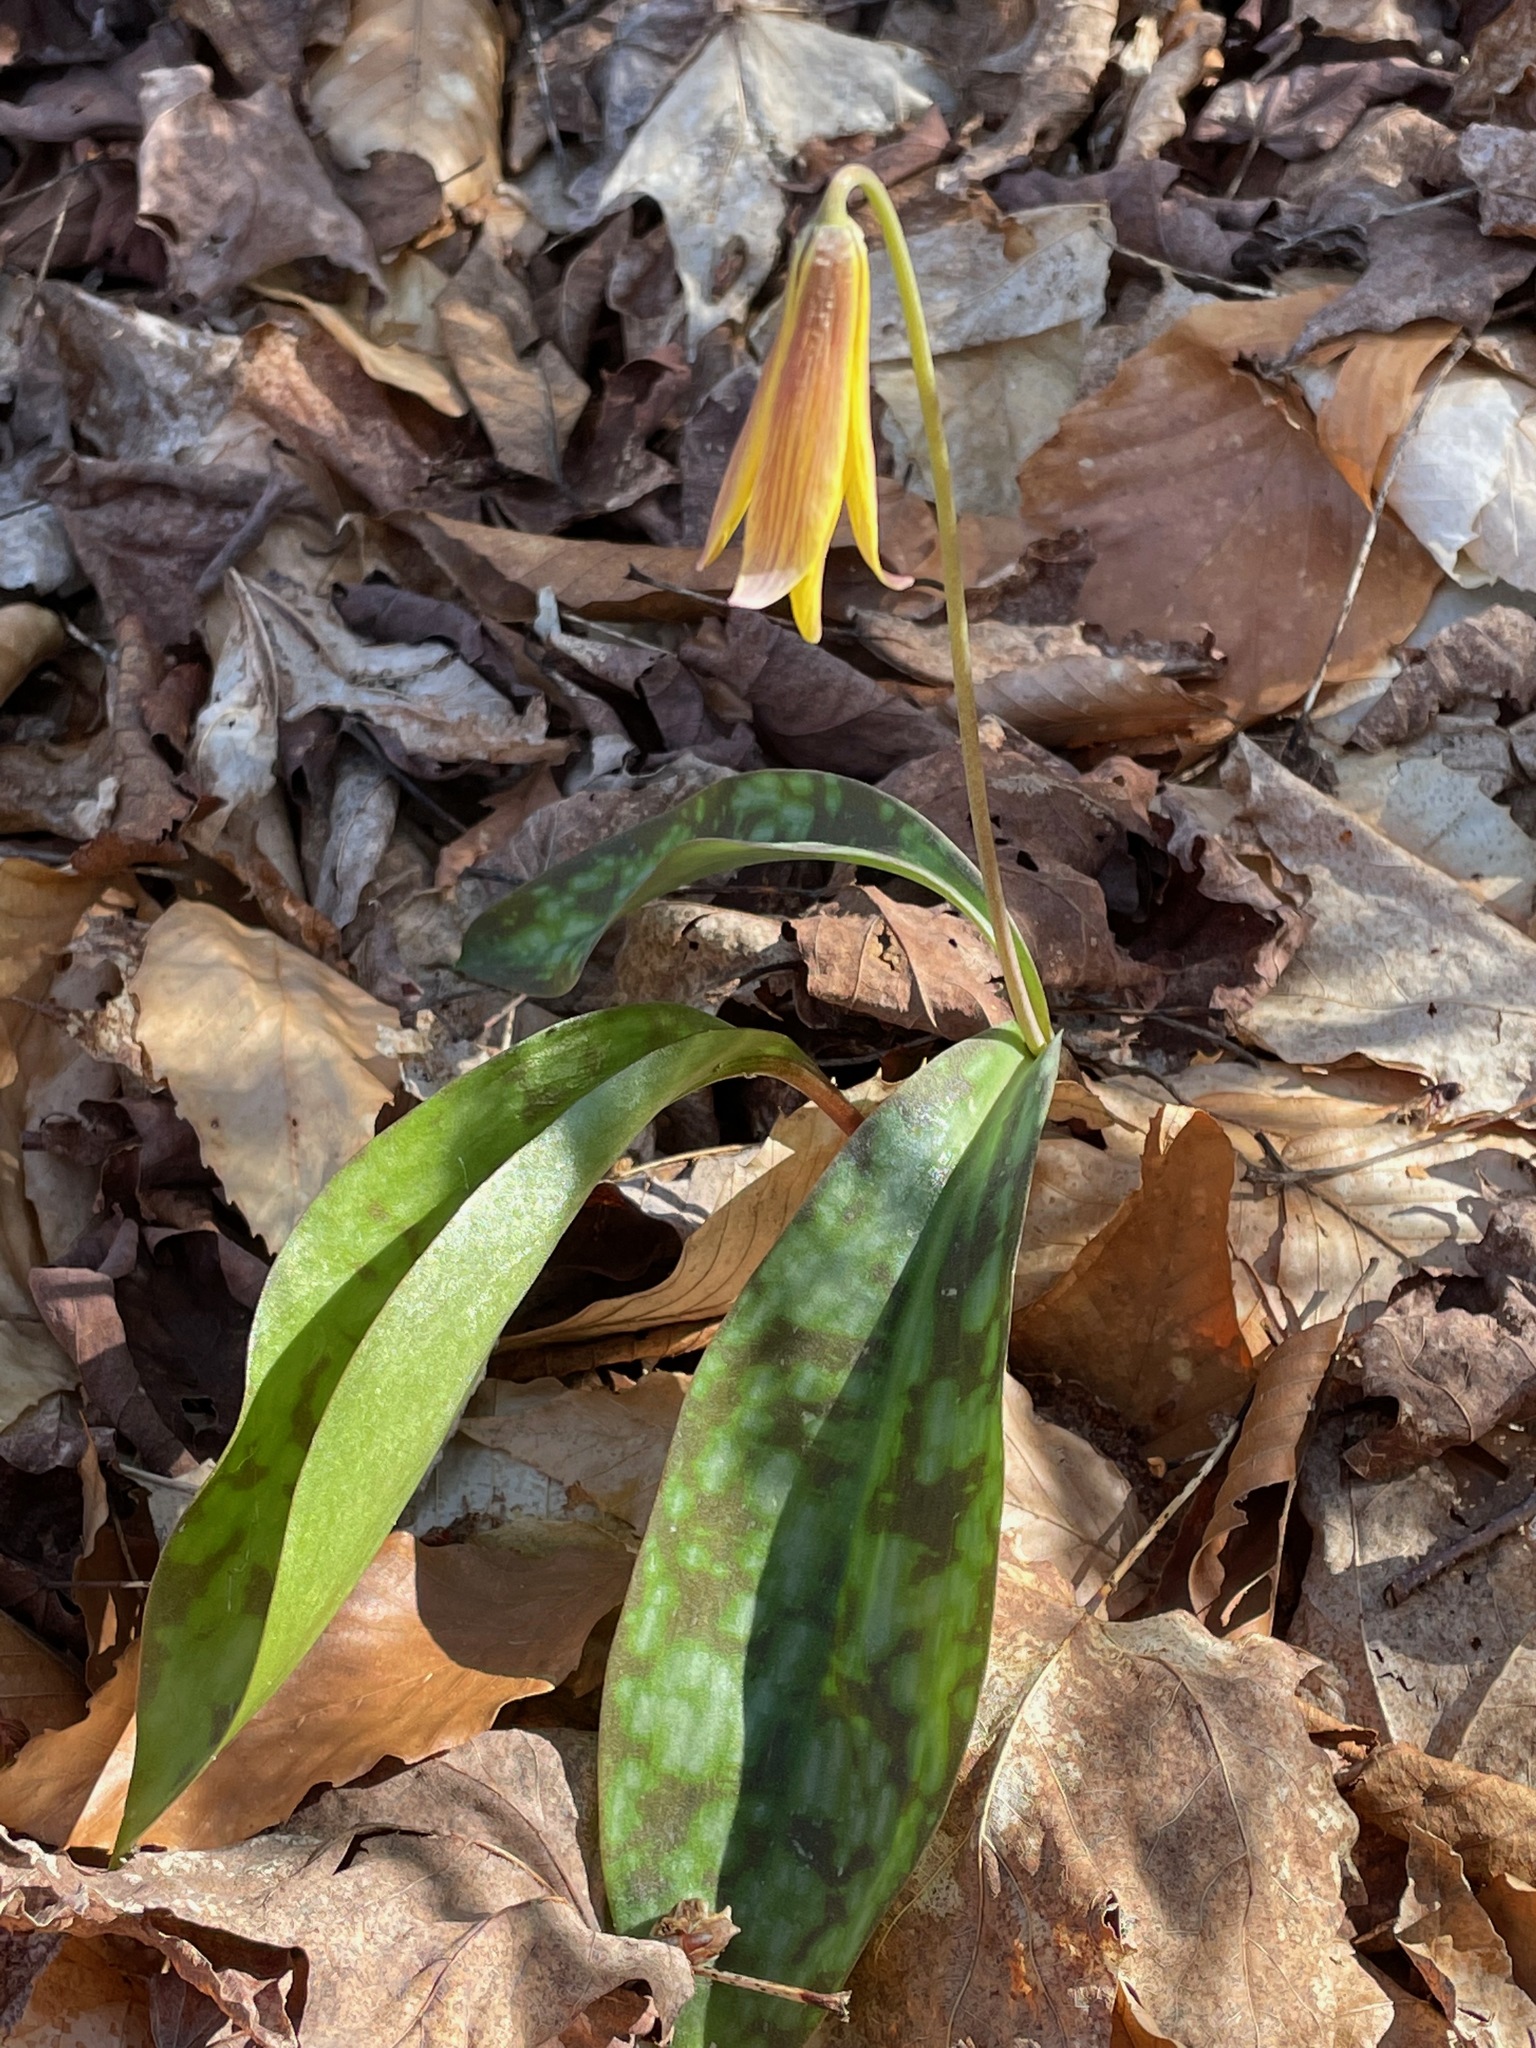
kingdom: Plantae
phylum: Tracheophyta
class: Liliopsida
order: Liliales
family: Liliaceae
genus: Erythronium
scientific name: Erythronium americanum
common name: Yellow adder's-tongue
